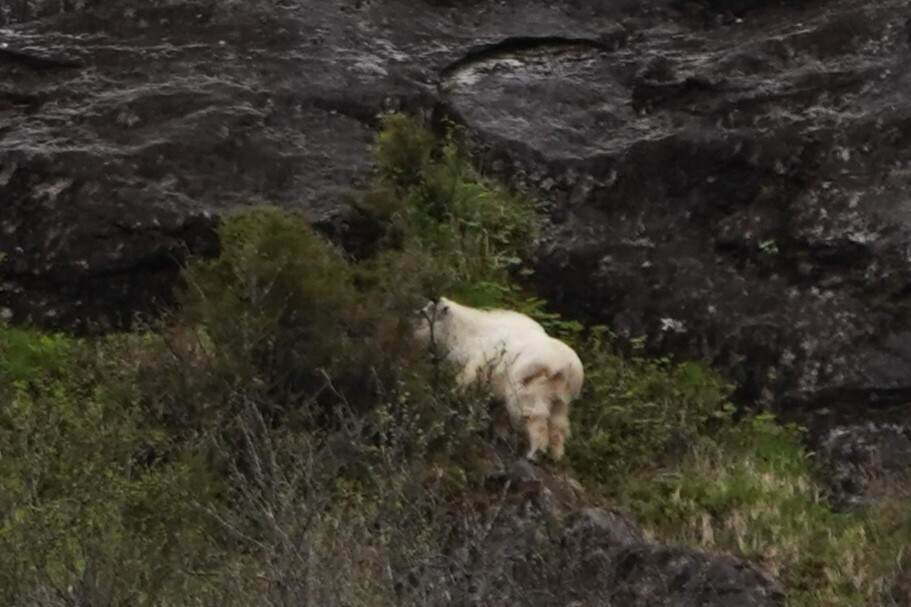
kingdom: Animalia
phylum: Chordata
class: Mammalia
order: Artiodactyla
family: Bovidae
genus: Oreamnos
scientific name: Oreamnos americanus
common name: Mountain goat
